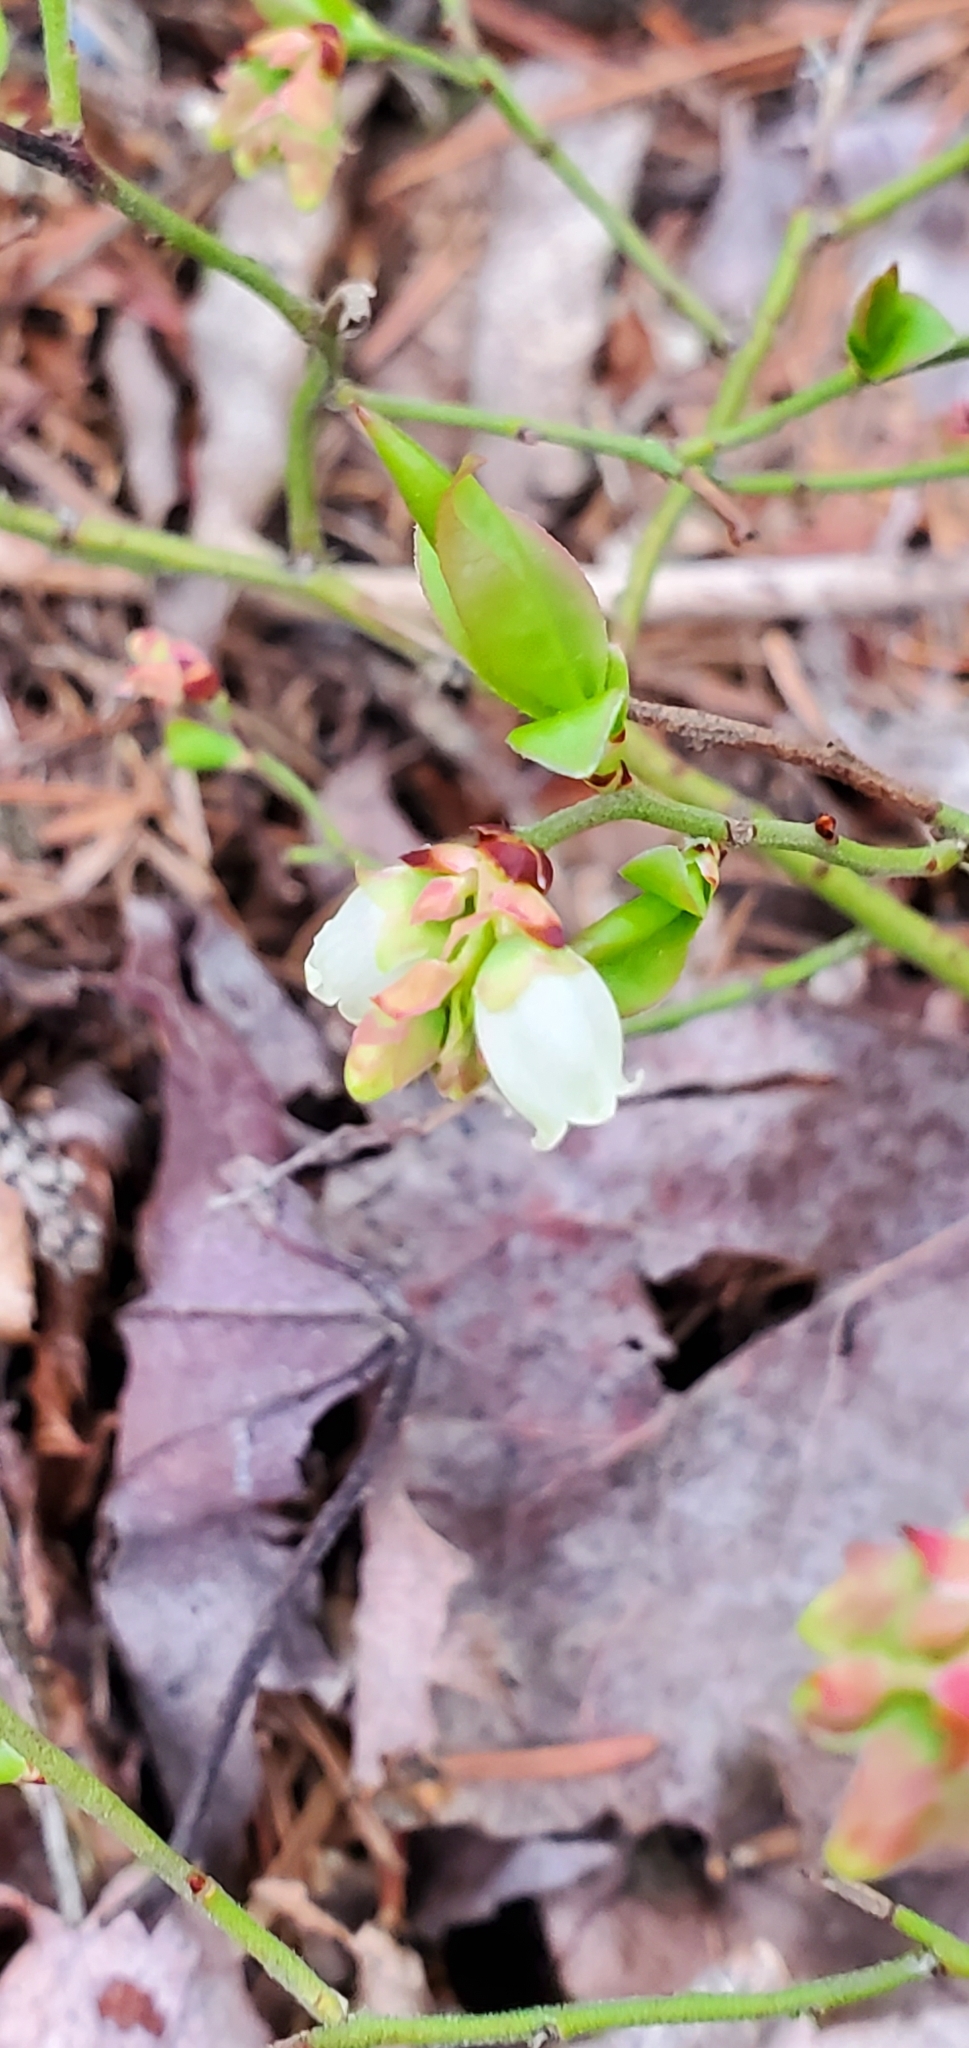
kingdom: Plantae
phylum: Tracheophyta
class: Magnoliopsida
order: Ericales
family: Ericaceae
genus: Vaccinium
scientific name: Vaccinium angustifolium
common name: Early lowbush blueberry
